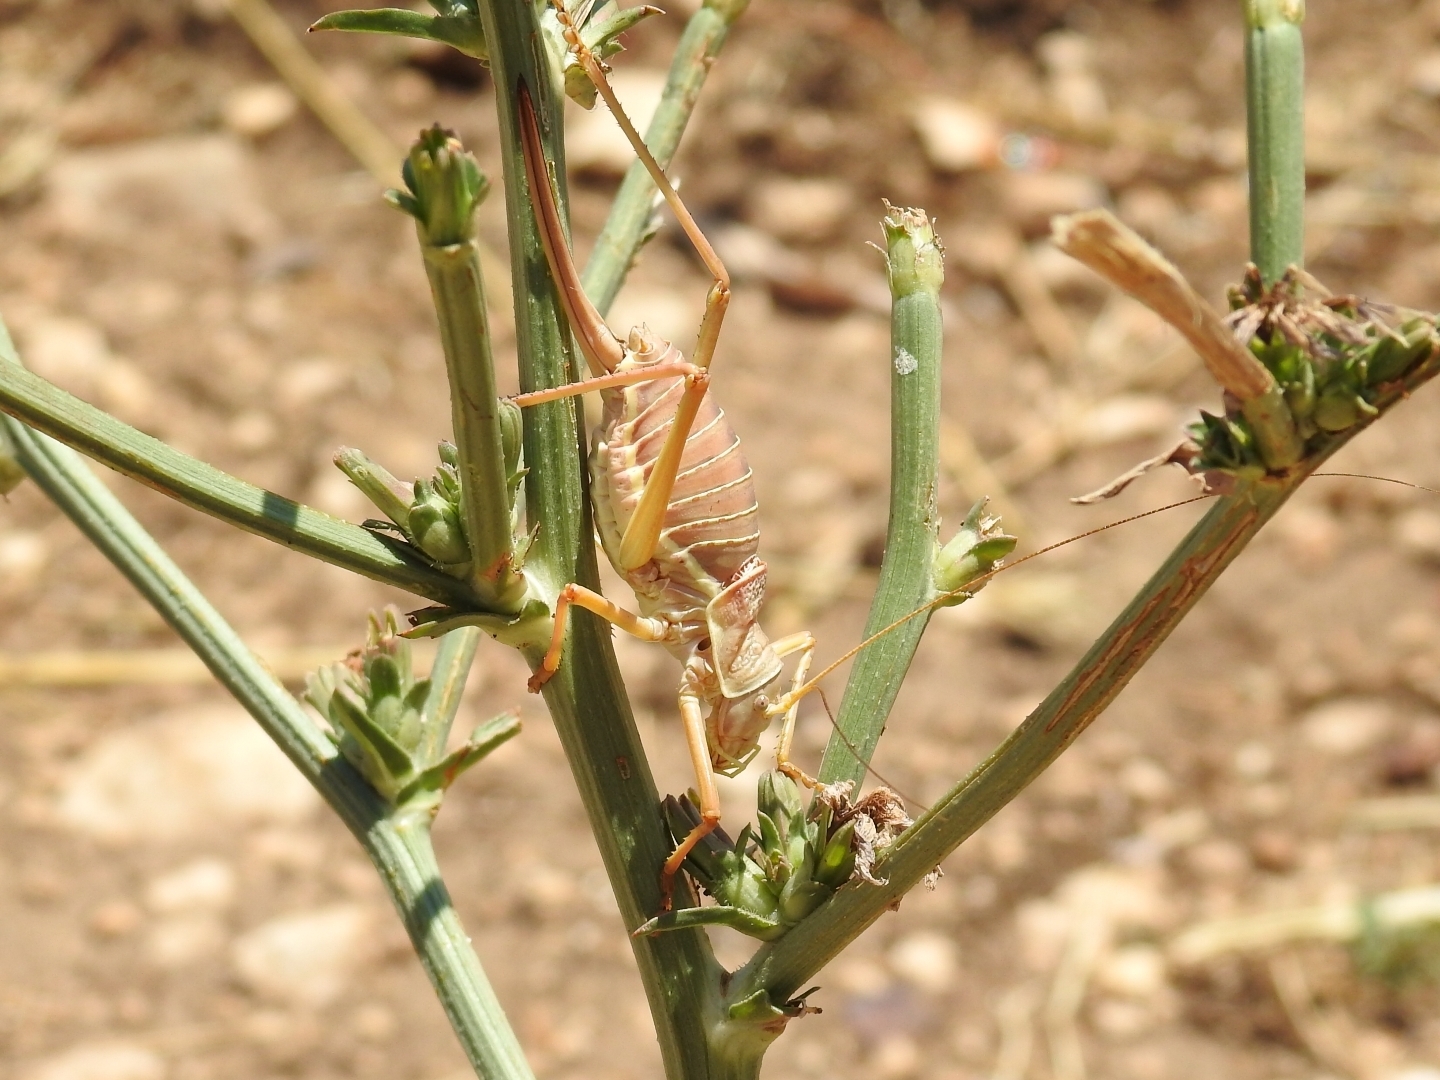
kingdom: Animalia
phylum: Arthropoda
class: Insecta
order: Orthoptera
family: Tettigoniidae
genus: Ephippiger
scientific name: Ephippiger apulus
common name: Apulian saddle bush-cricket
